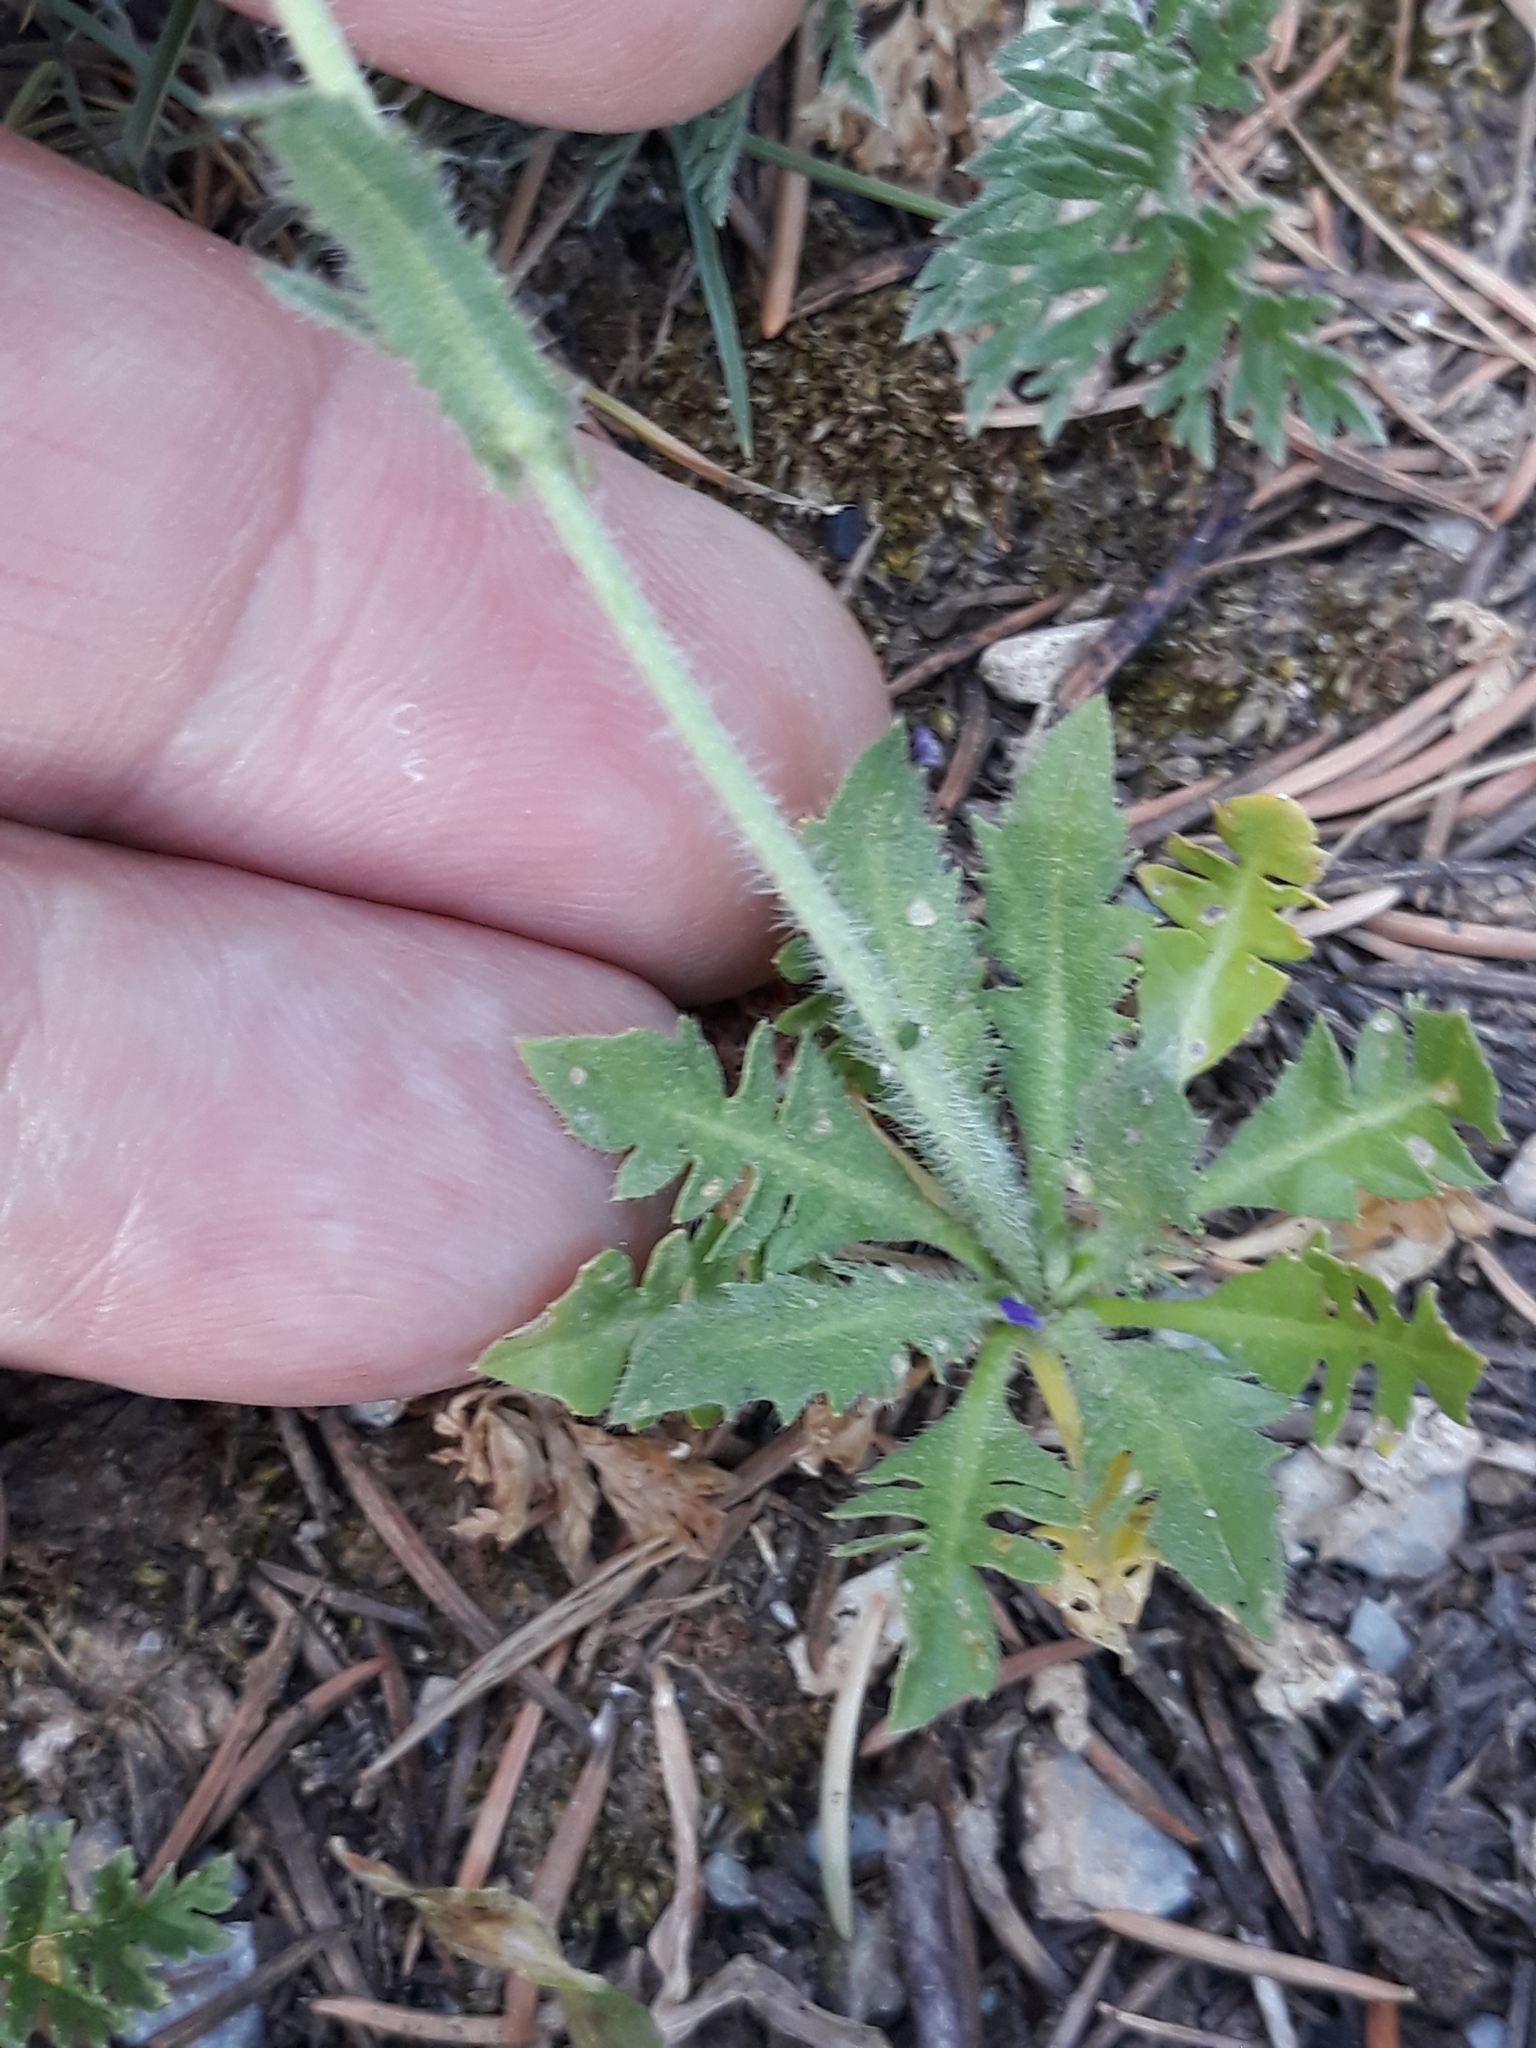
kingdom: Plantae
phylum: Tracheophyta
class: Magnoliopsida
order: Brassicales
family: Brassicaceae
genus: Capsella
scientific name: Capsella bursa-pastoris
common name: Shepherd's purse
